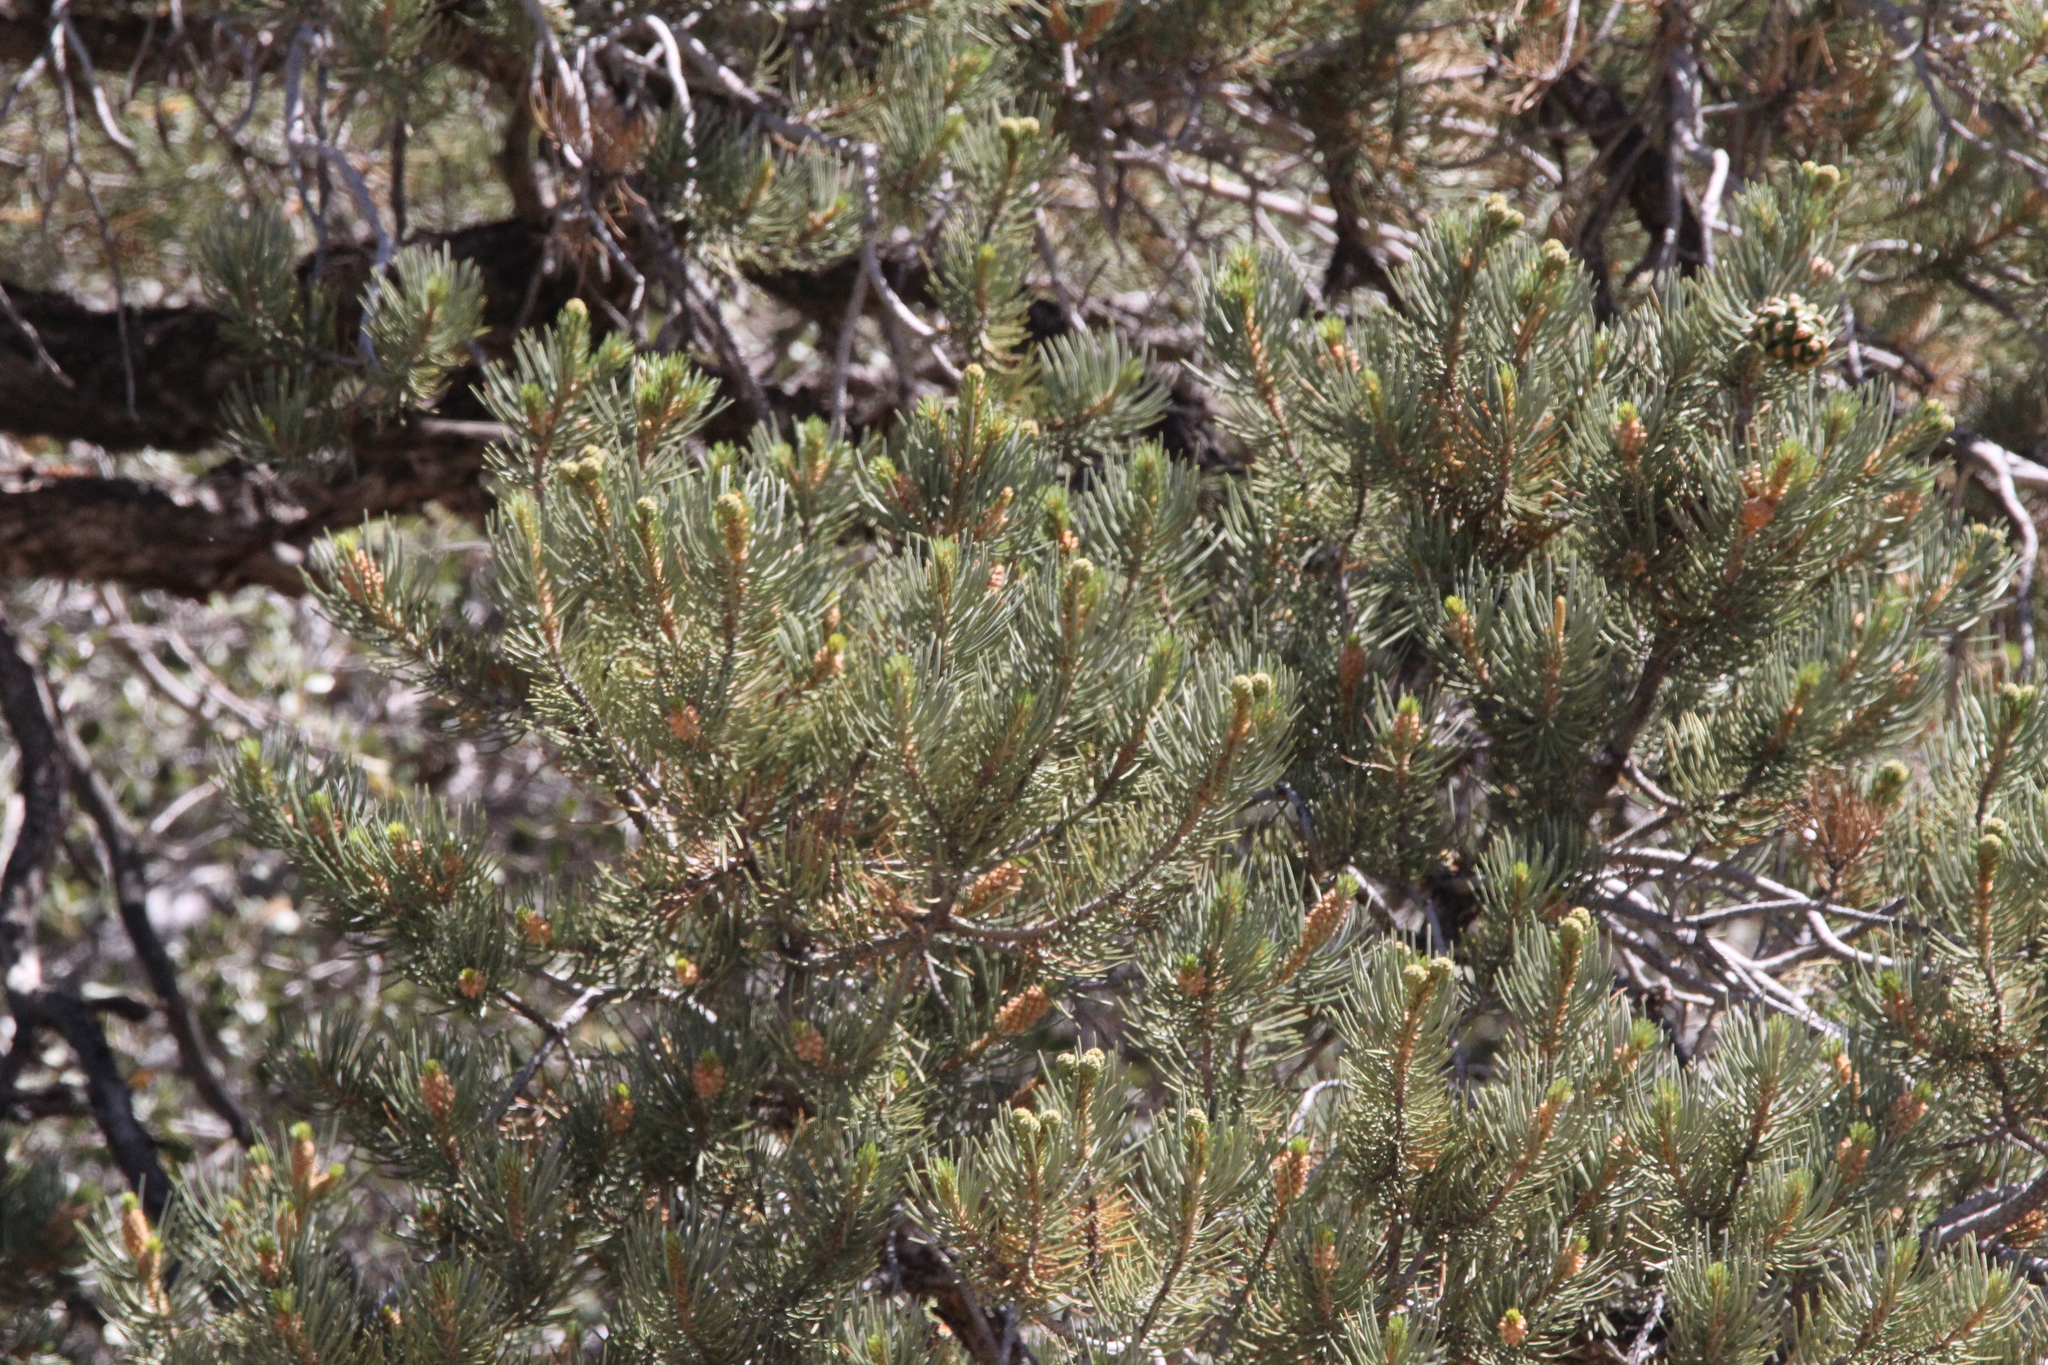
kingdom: Plantae
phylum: Tracheophyta
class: Pinopsida
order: Pinales
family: Pinaceae
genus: Pinus
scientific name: Pinus monophylla
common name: One-leaved nut pine
